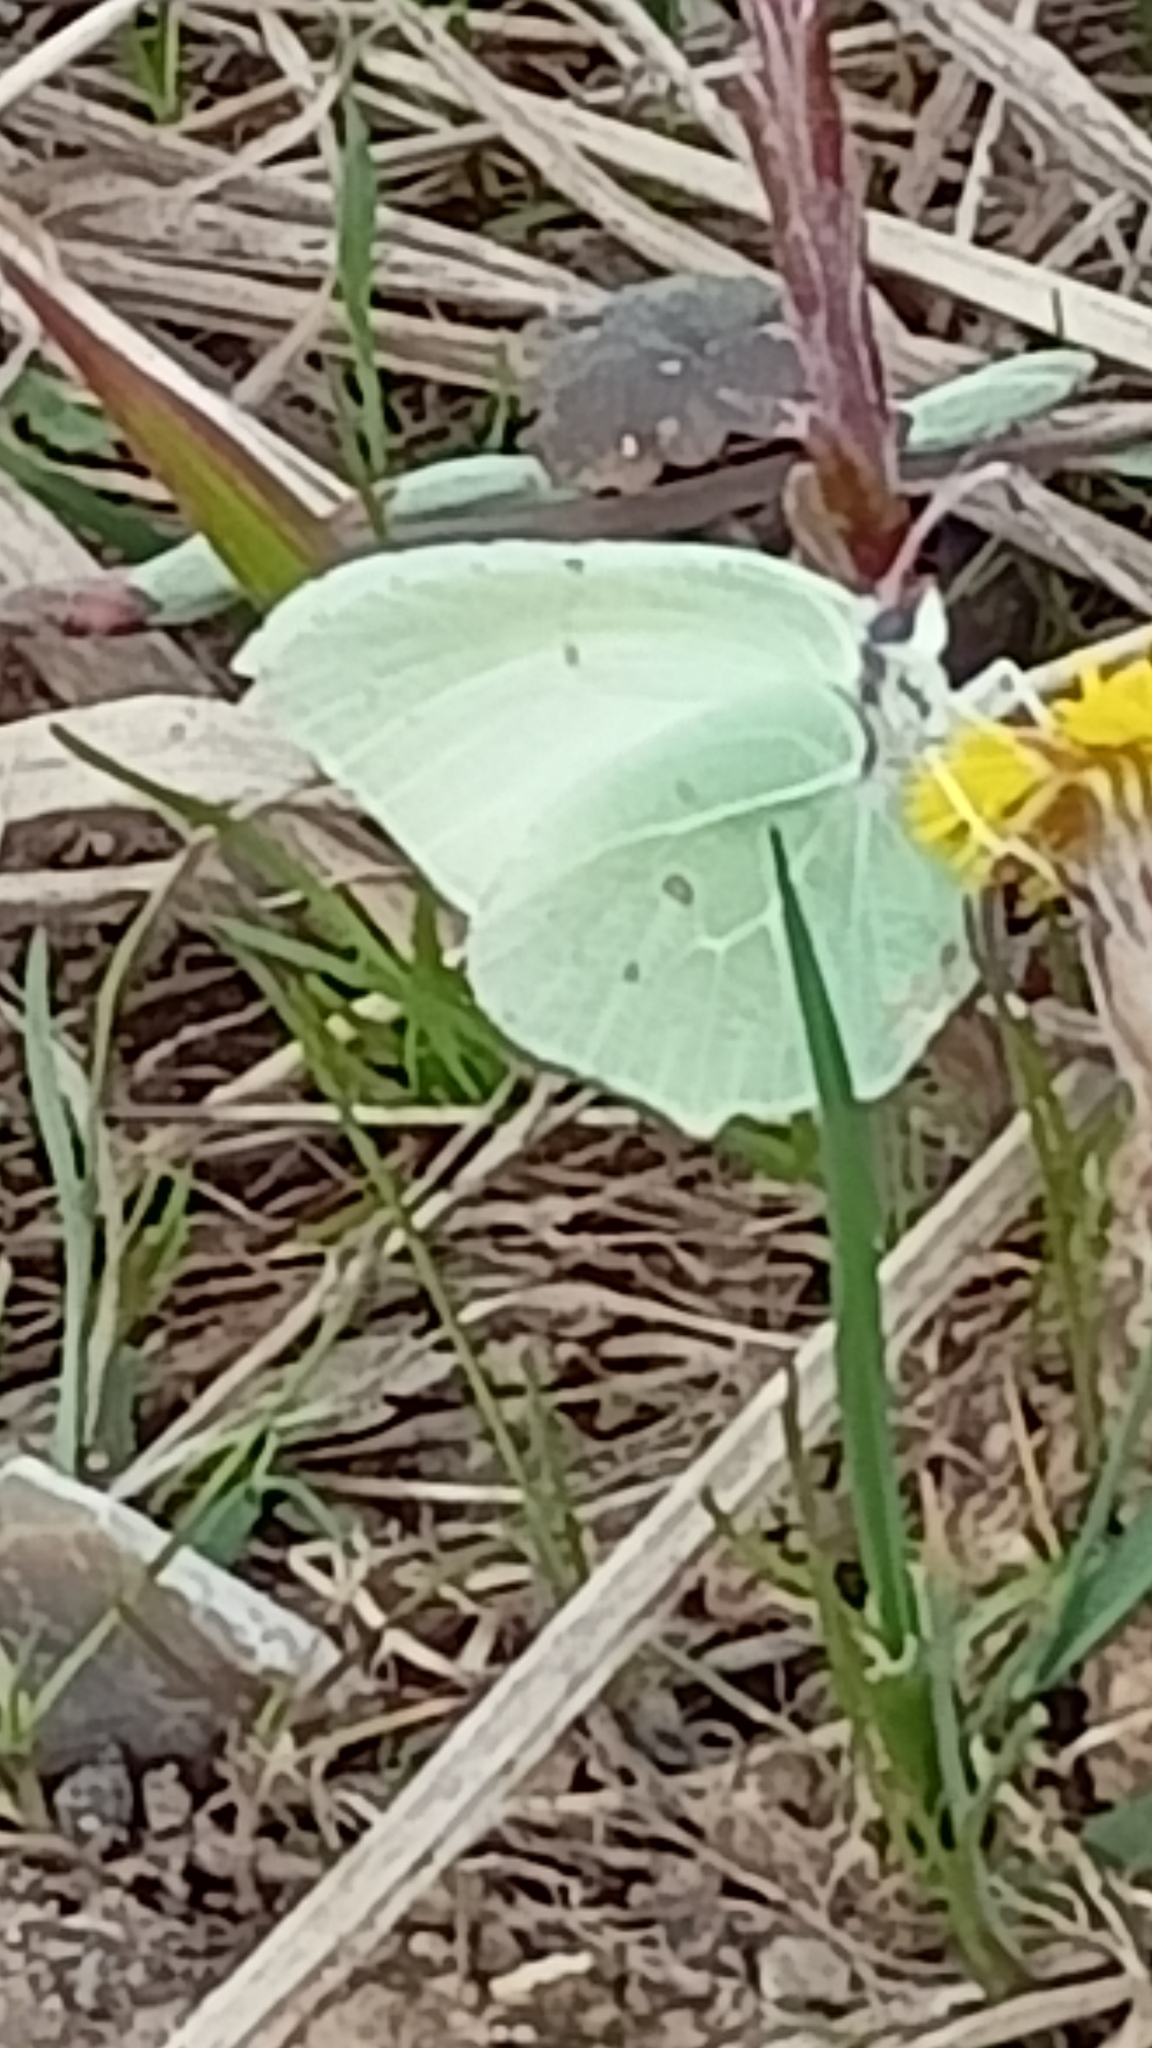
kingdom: Animalia
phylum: Arthropoda
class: Insecta
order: Lepidoptera
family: Pieridae
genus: Gonepteryx
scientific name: Gonepteryx rhamni
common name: Brimstone
